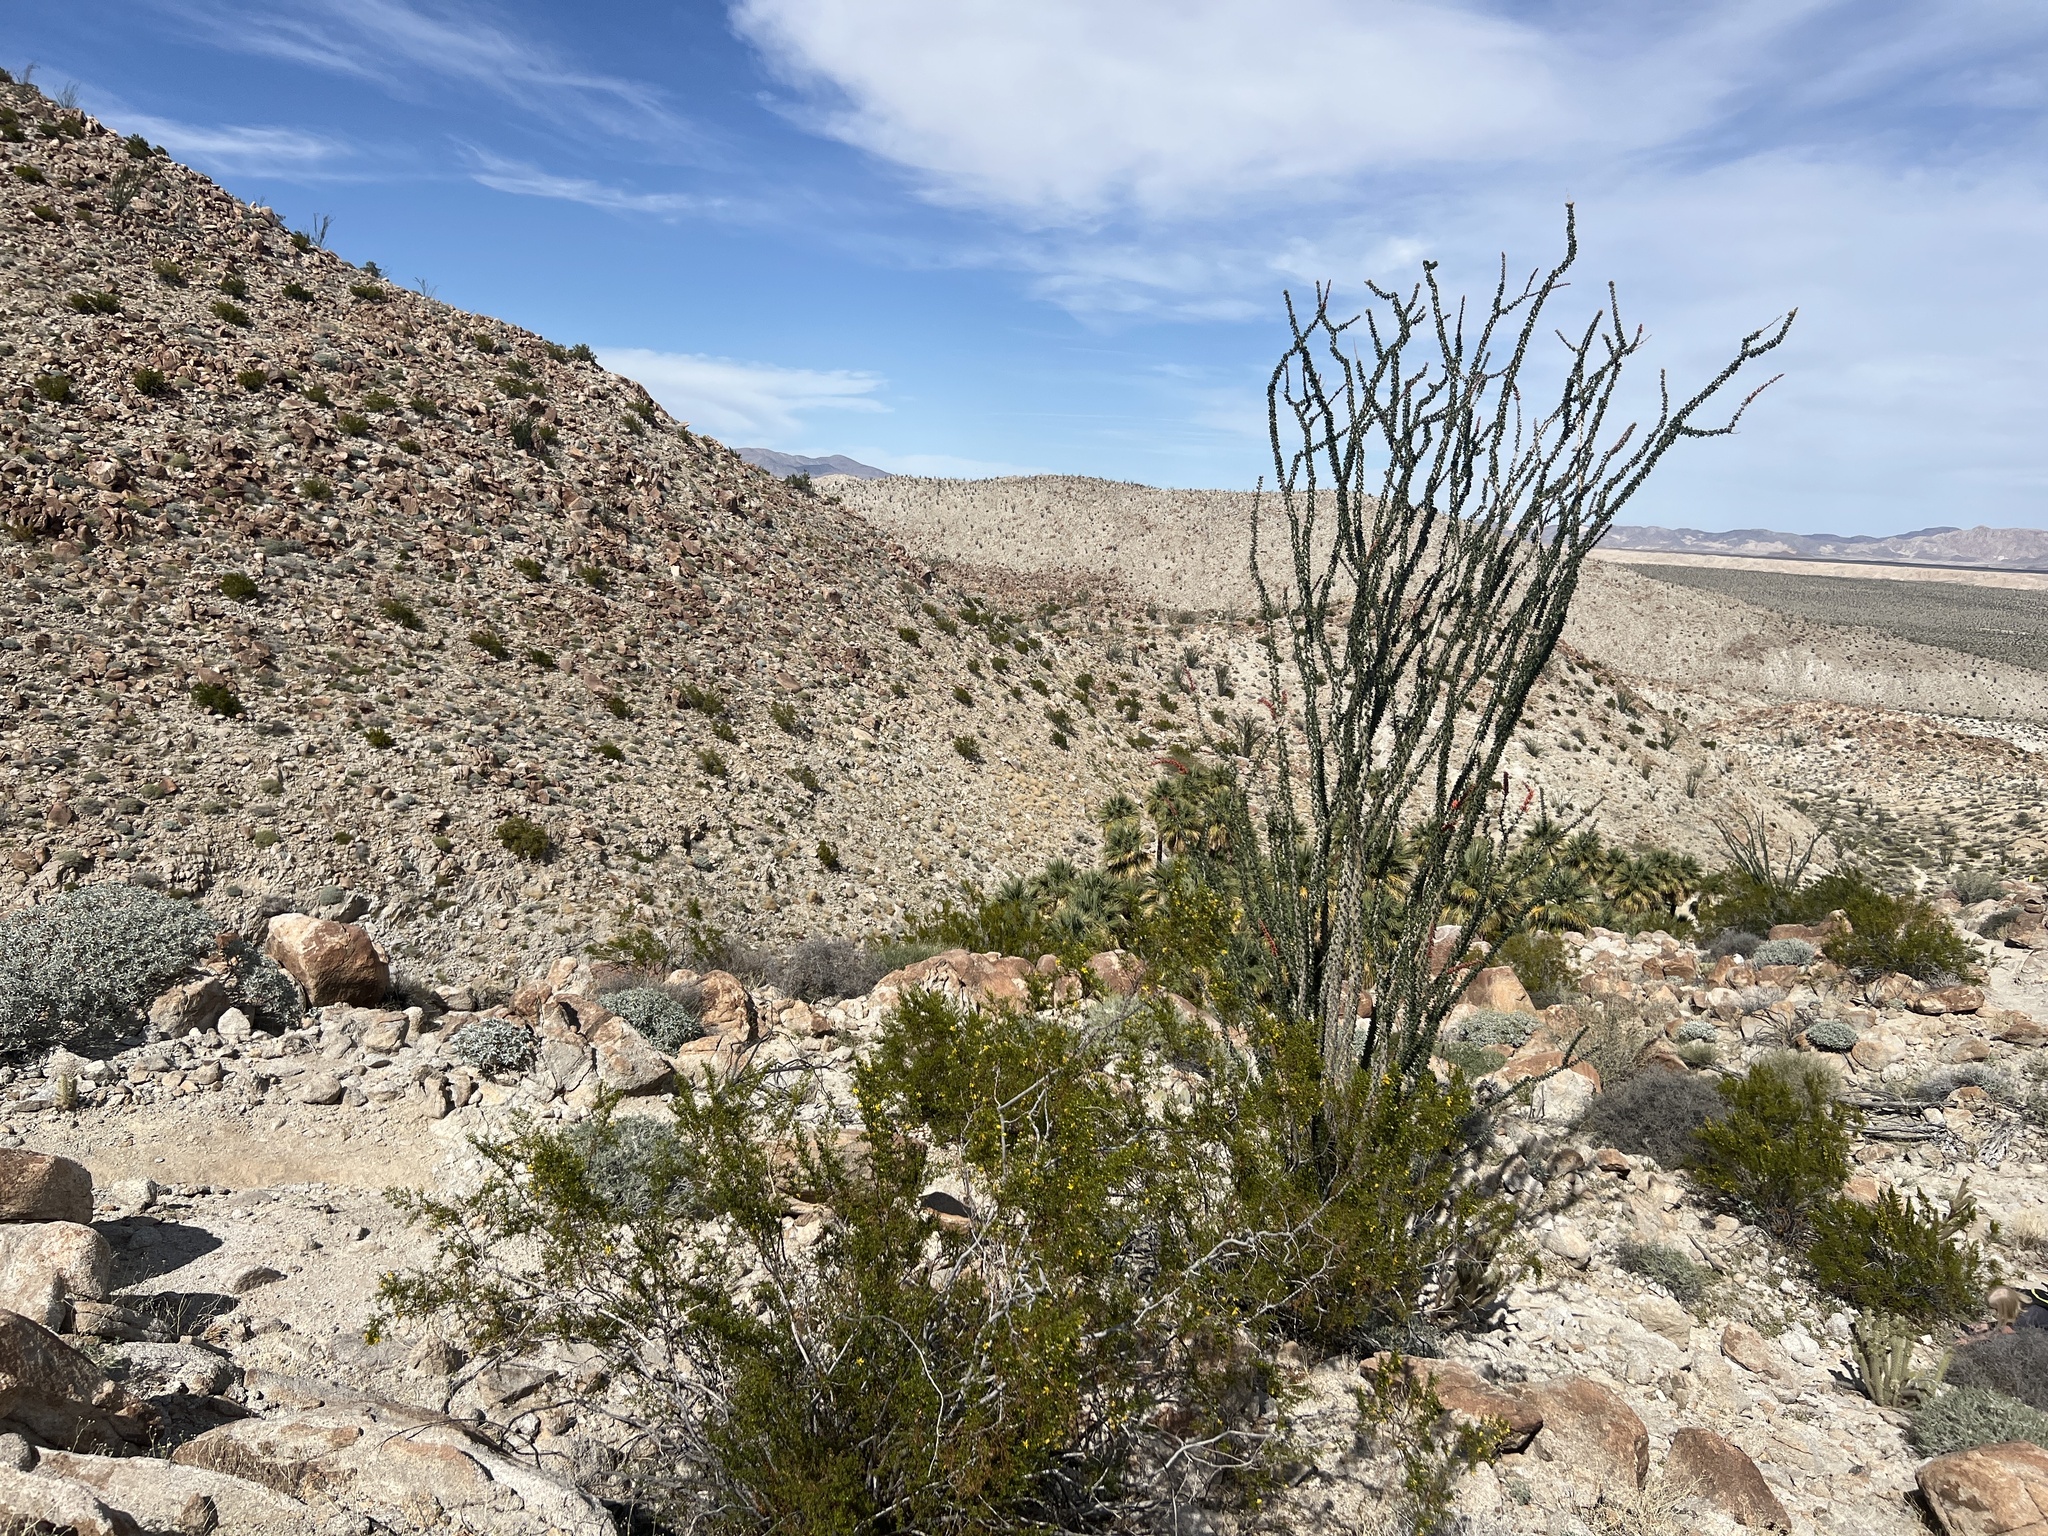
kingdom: Plantae
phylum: Tracheophyta
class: Magnoliopsida
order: Ericales
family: Fouquieriaceae
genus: Fouquieria
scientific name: Fouquieria splendens
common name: Vine-cactus
